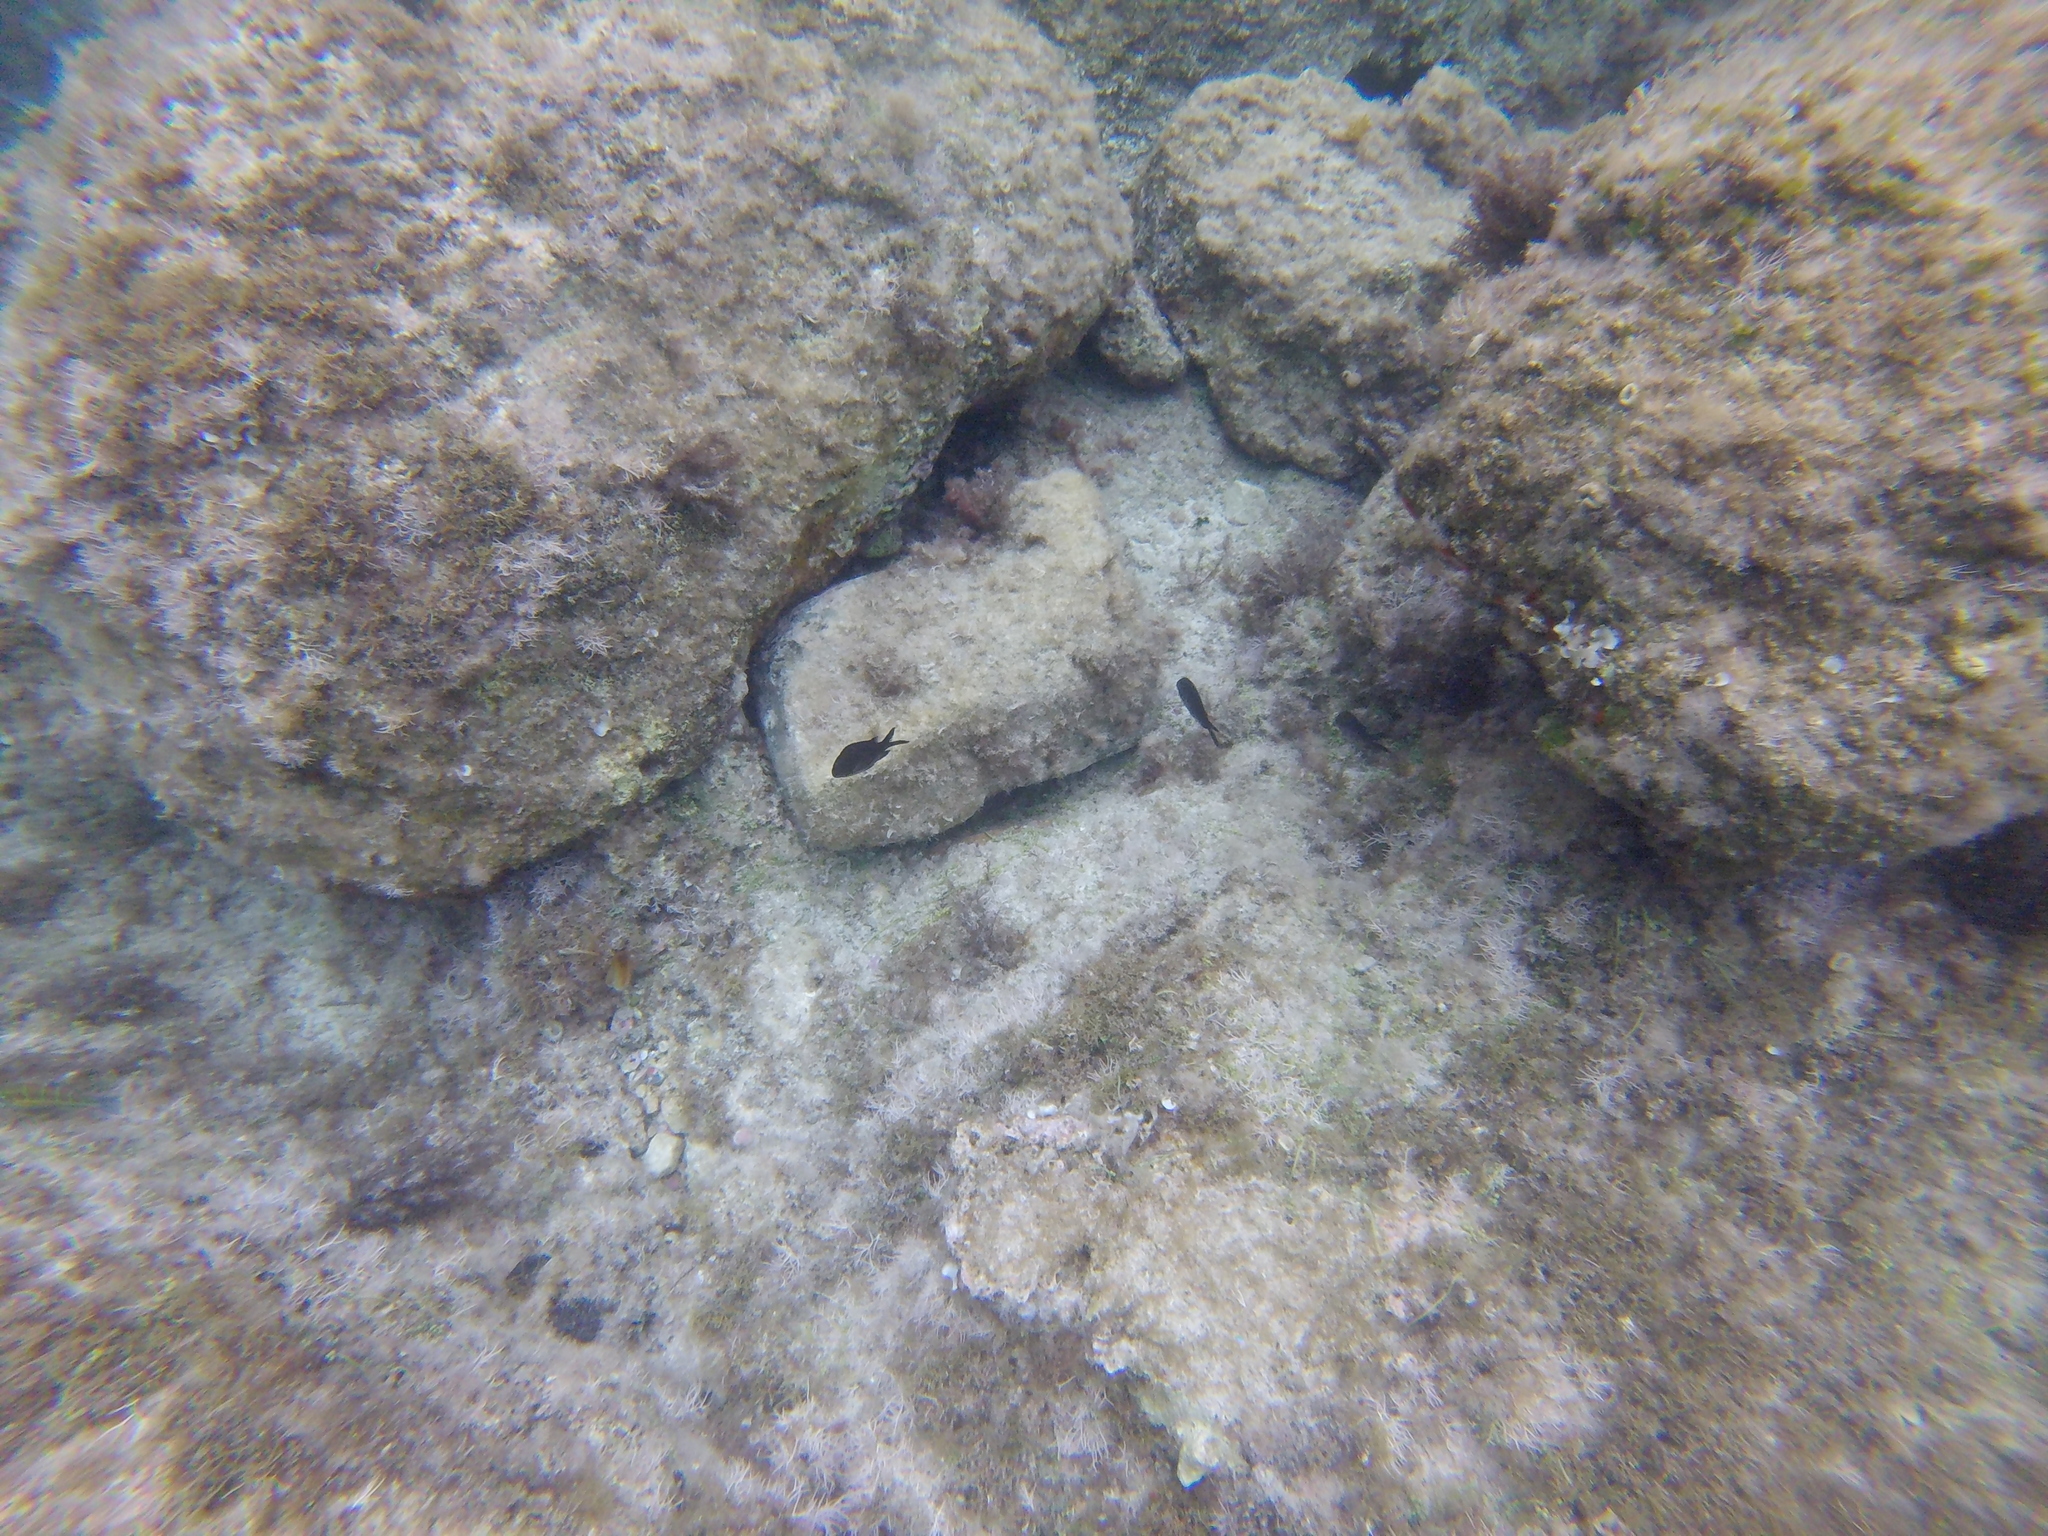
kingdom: Animalia
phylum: Chordata
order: Perciformes
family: Pomacentridae
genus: Chromis
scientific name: Chromis chromis
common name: Damselfish
